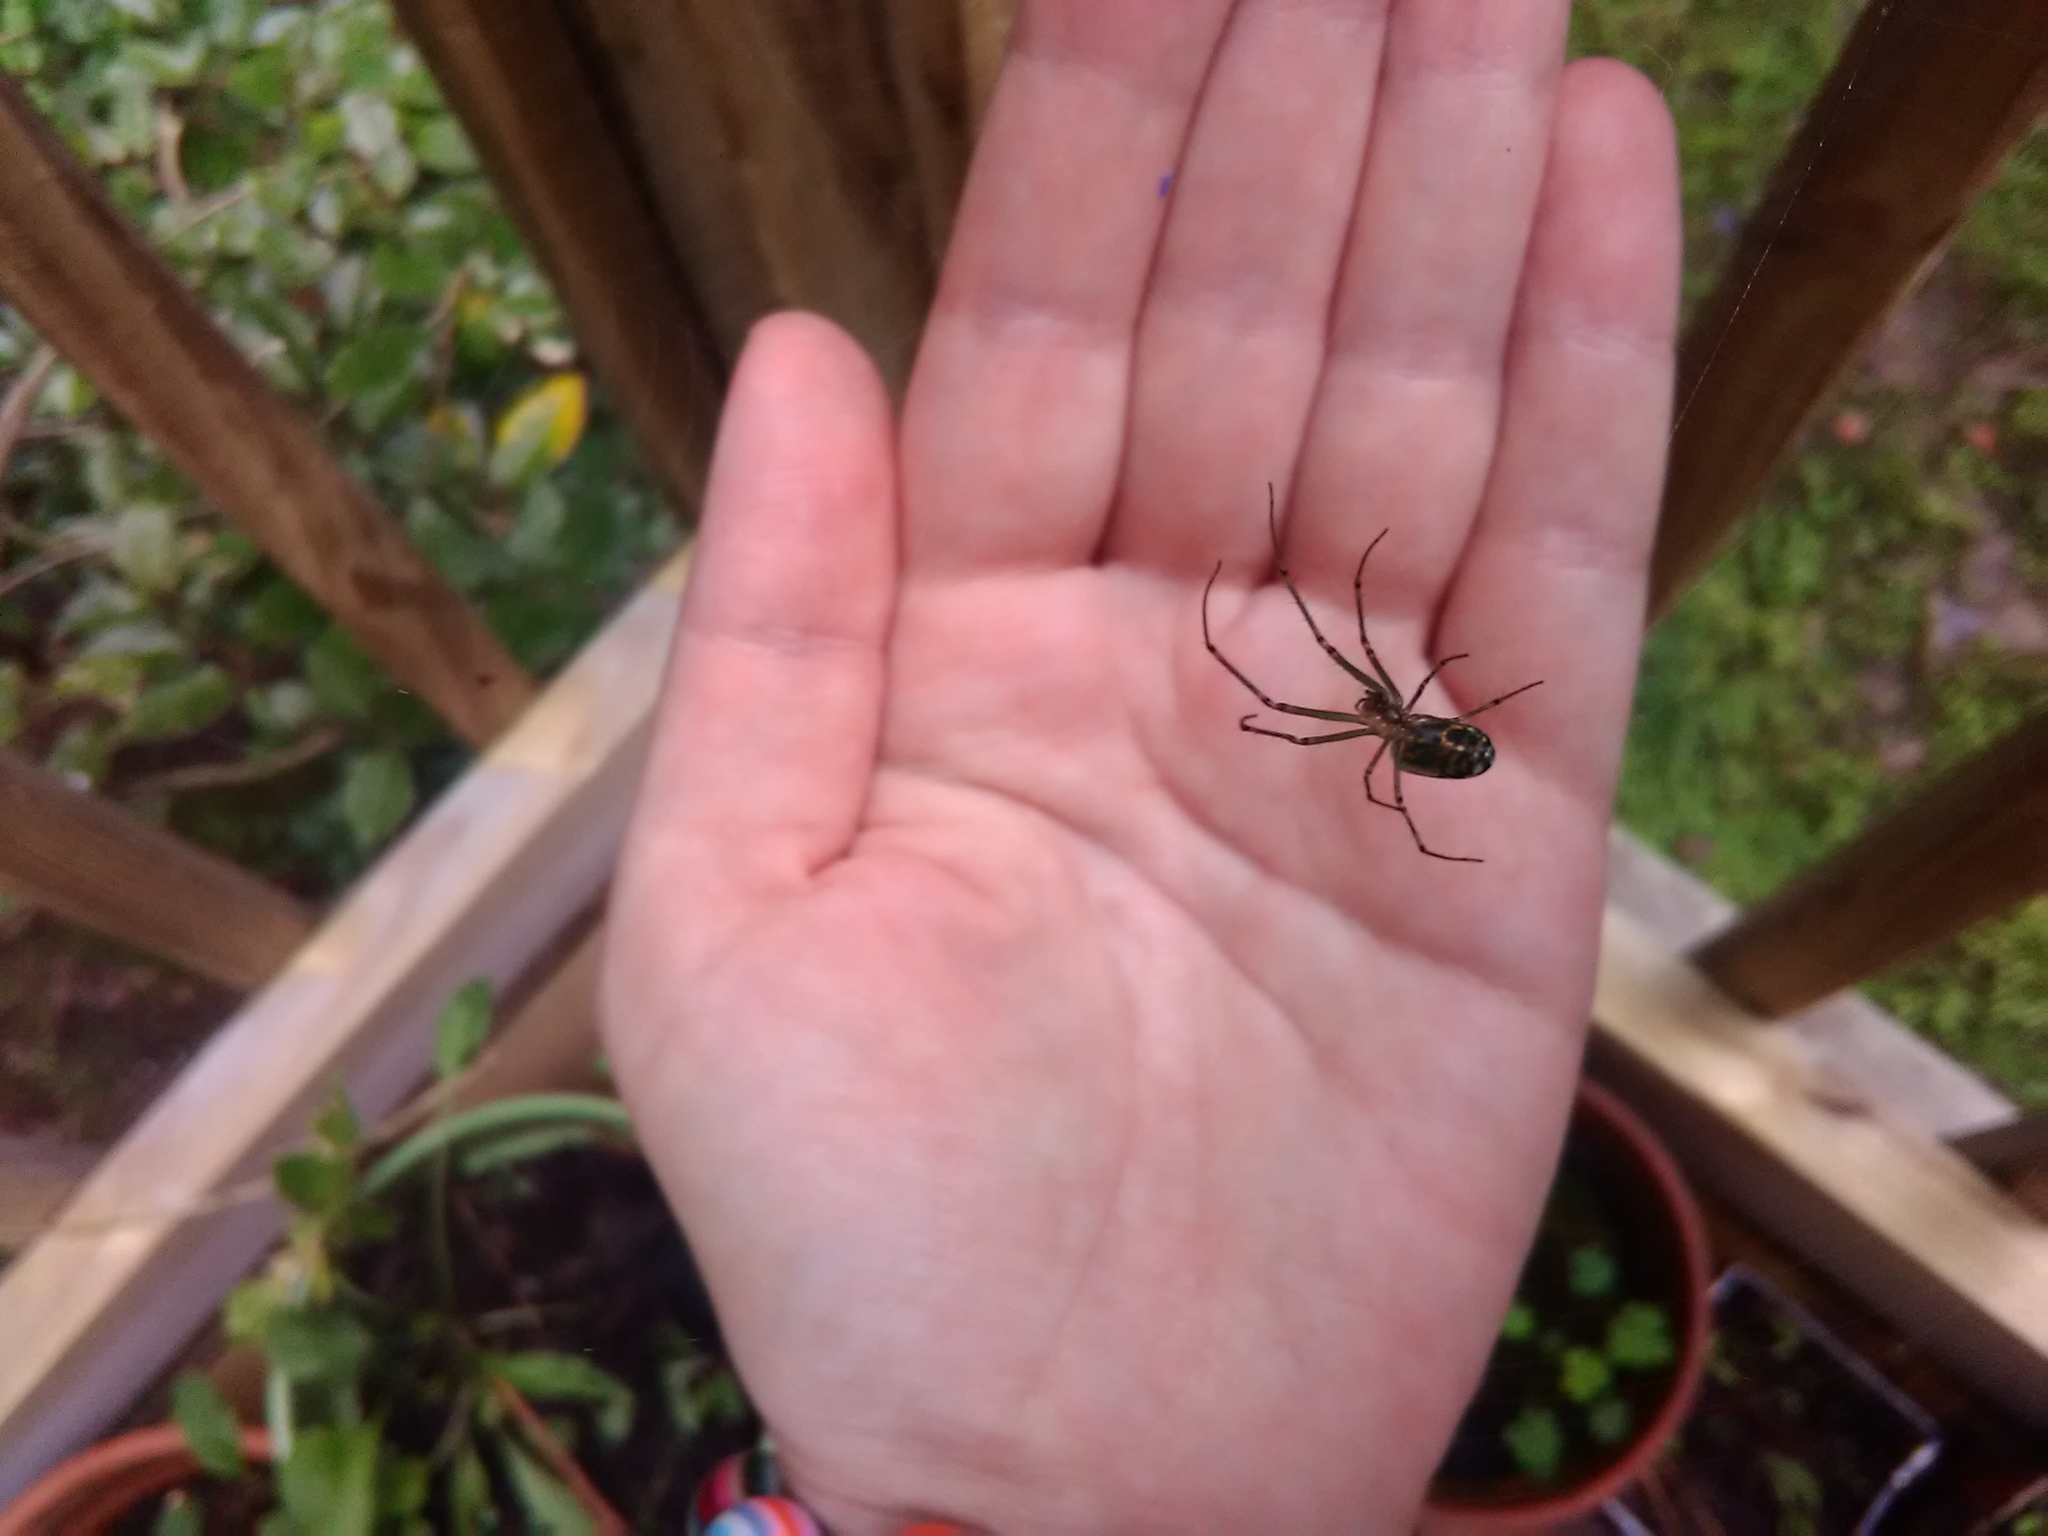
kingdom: Animalia
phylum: Arthropoda
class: Arachnida
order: Araneae
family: Tetragnathidae
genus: Leucauge
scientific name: Leucauge venusta
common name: Longjawed orb weavers
